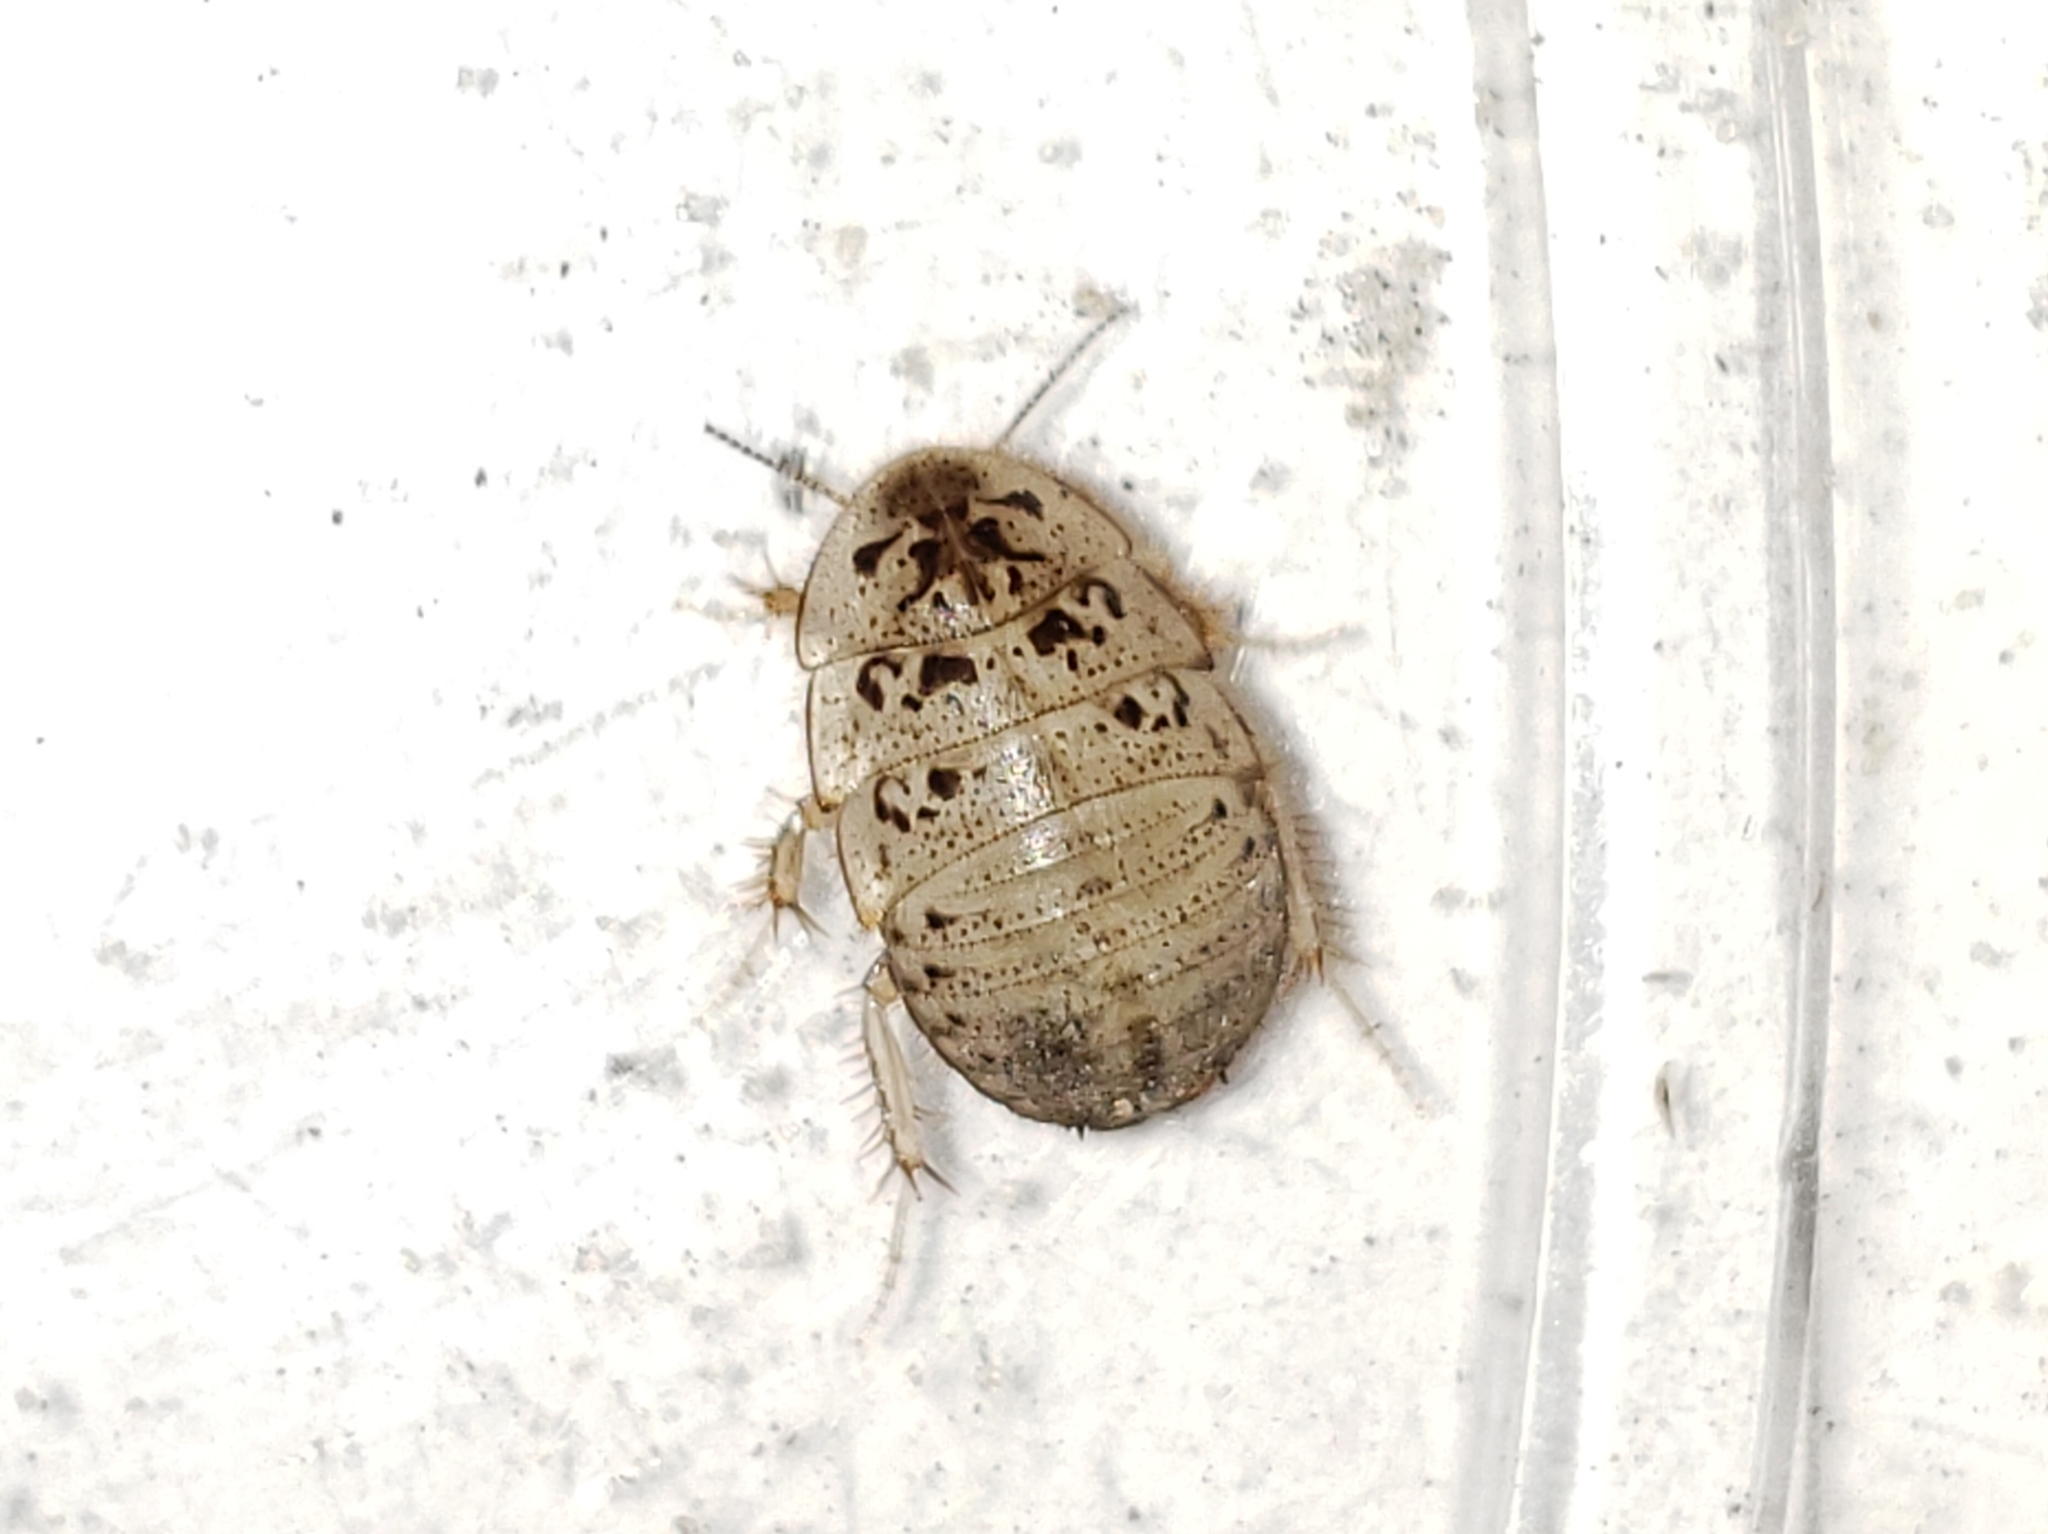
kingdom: Animalia
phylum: Arthropoda
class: Insecta
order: Blattodea
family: Corydiidae
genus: Arenivaga
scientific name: Arenivaga floridensis
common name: Florida sand cockroach
